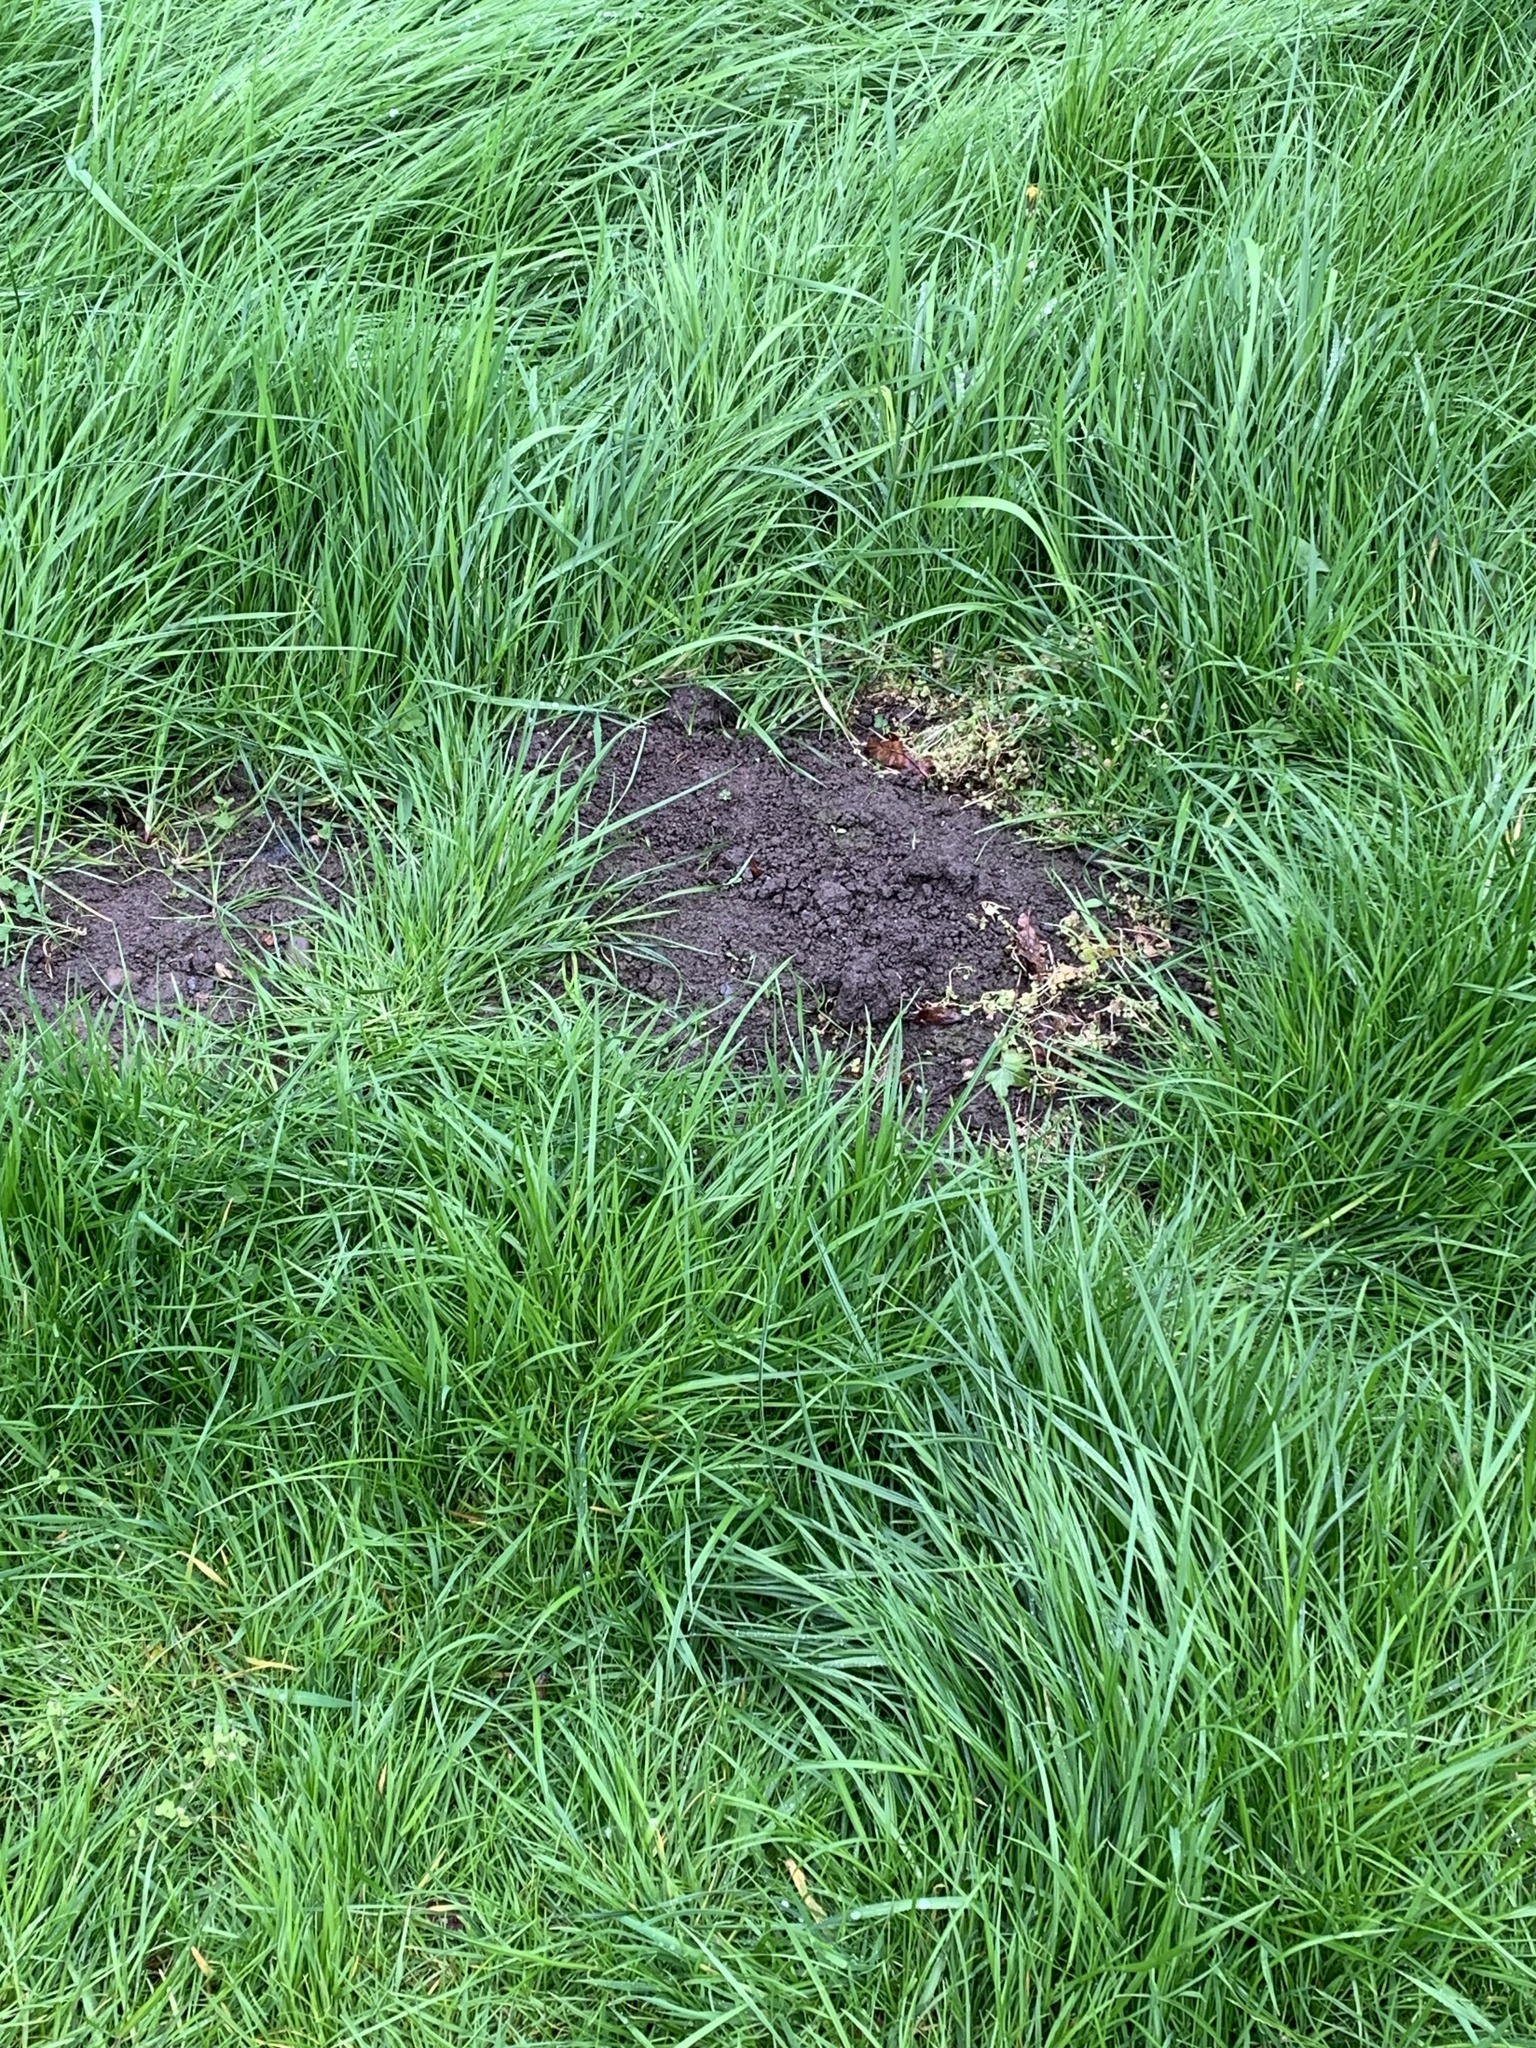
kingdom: Animalia
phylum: Chordata
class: Mammalia
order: Soricomorpha
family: Talpidae
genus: Talpa
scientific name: Talpa europaea
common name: European mole
